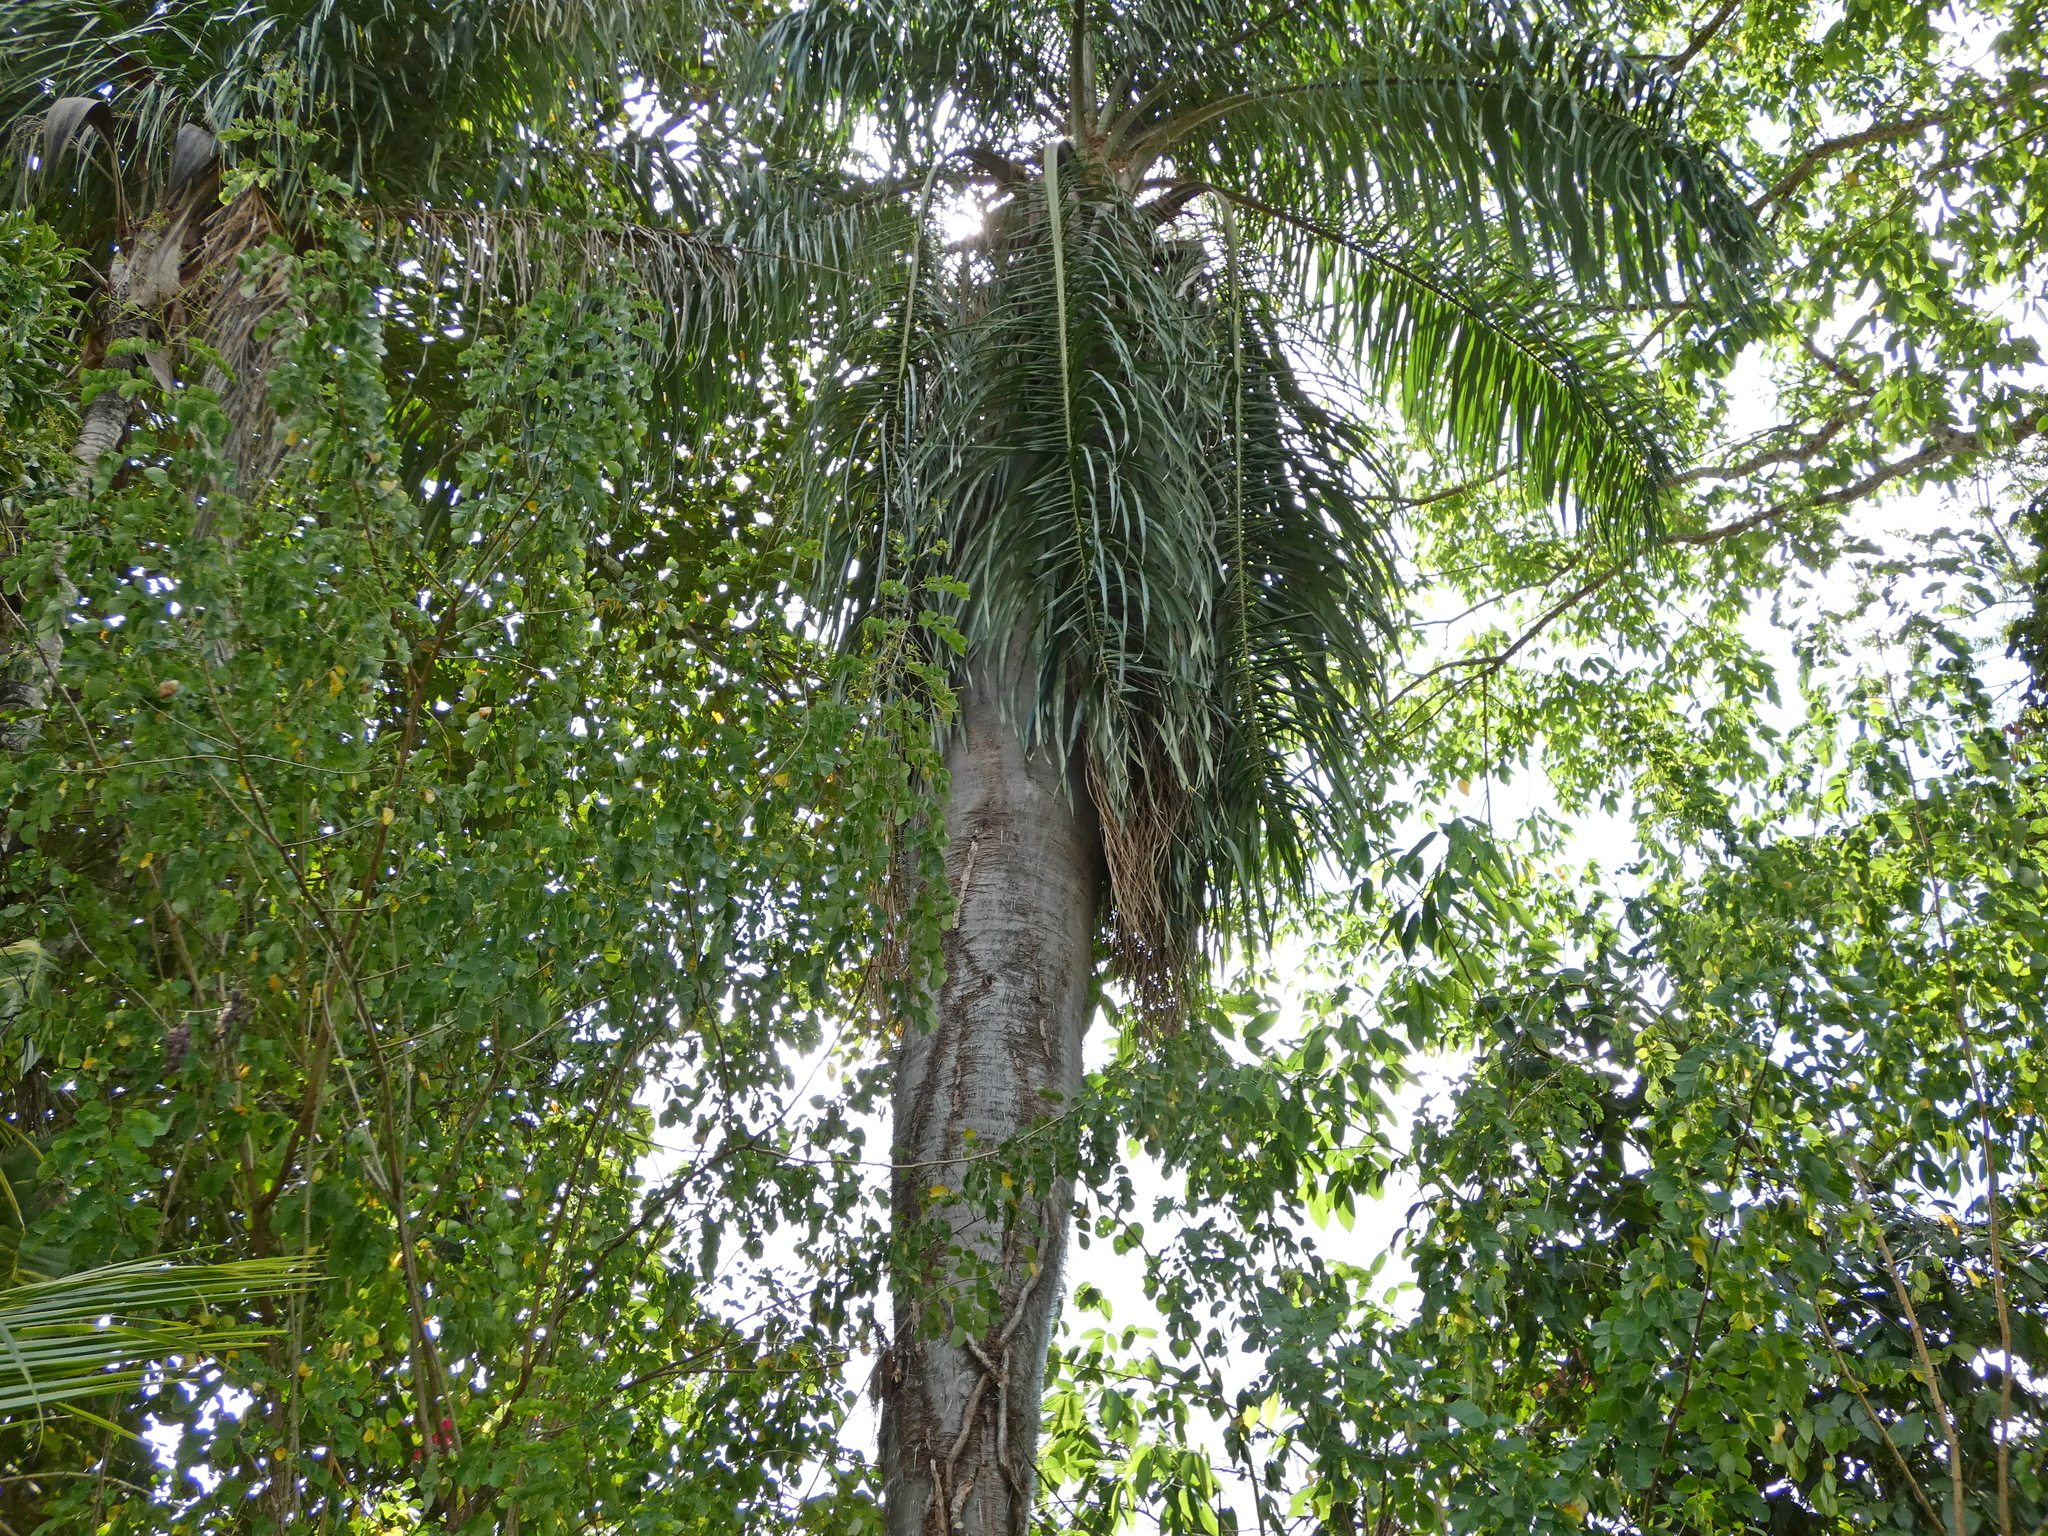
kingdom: Plantae
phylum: Tracheophyta
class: Liliopsida
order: Arecales
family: Arecaceae
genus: Acrocomia
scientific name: Acrocomia intumescens
